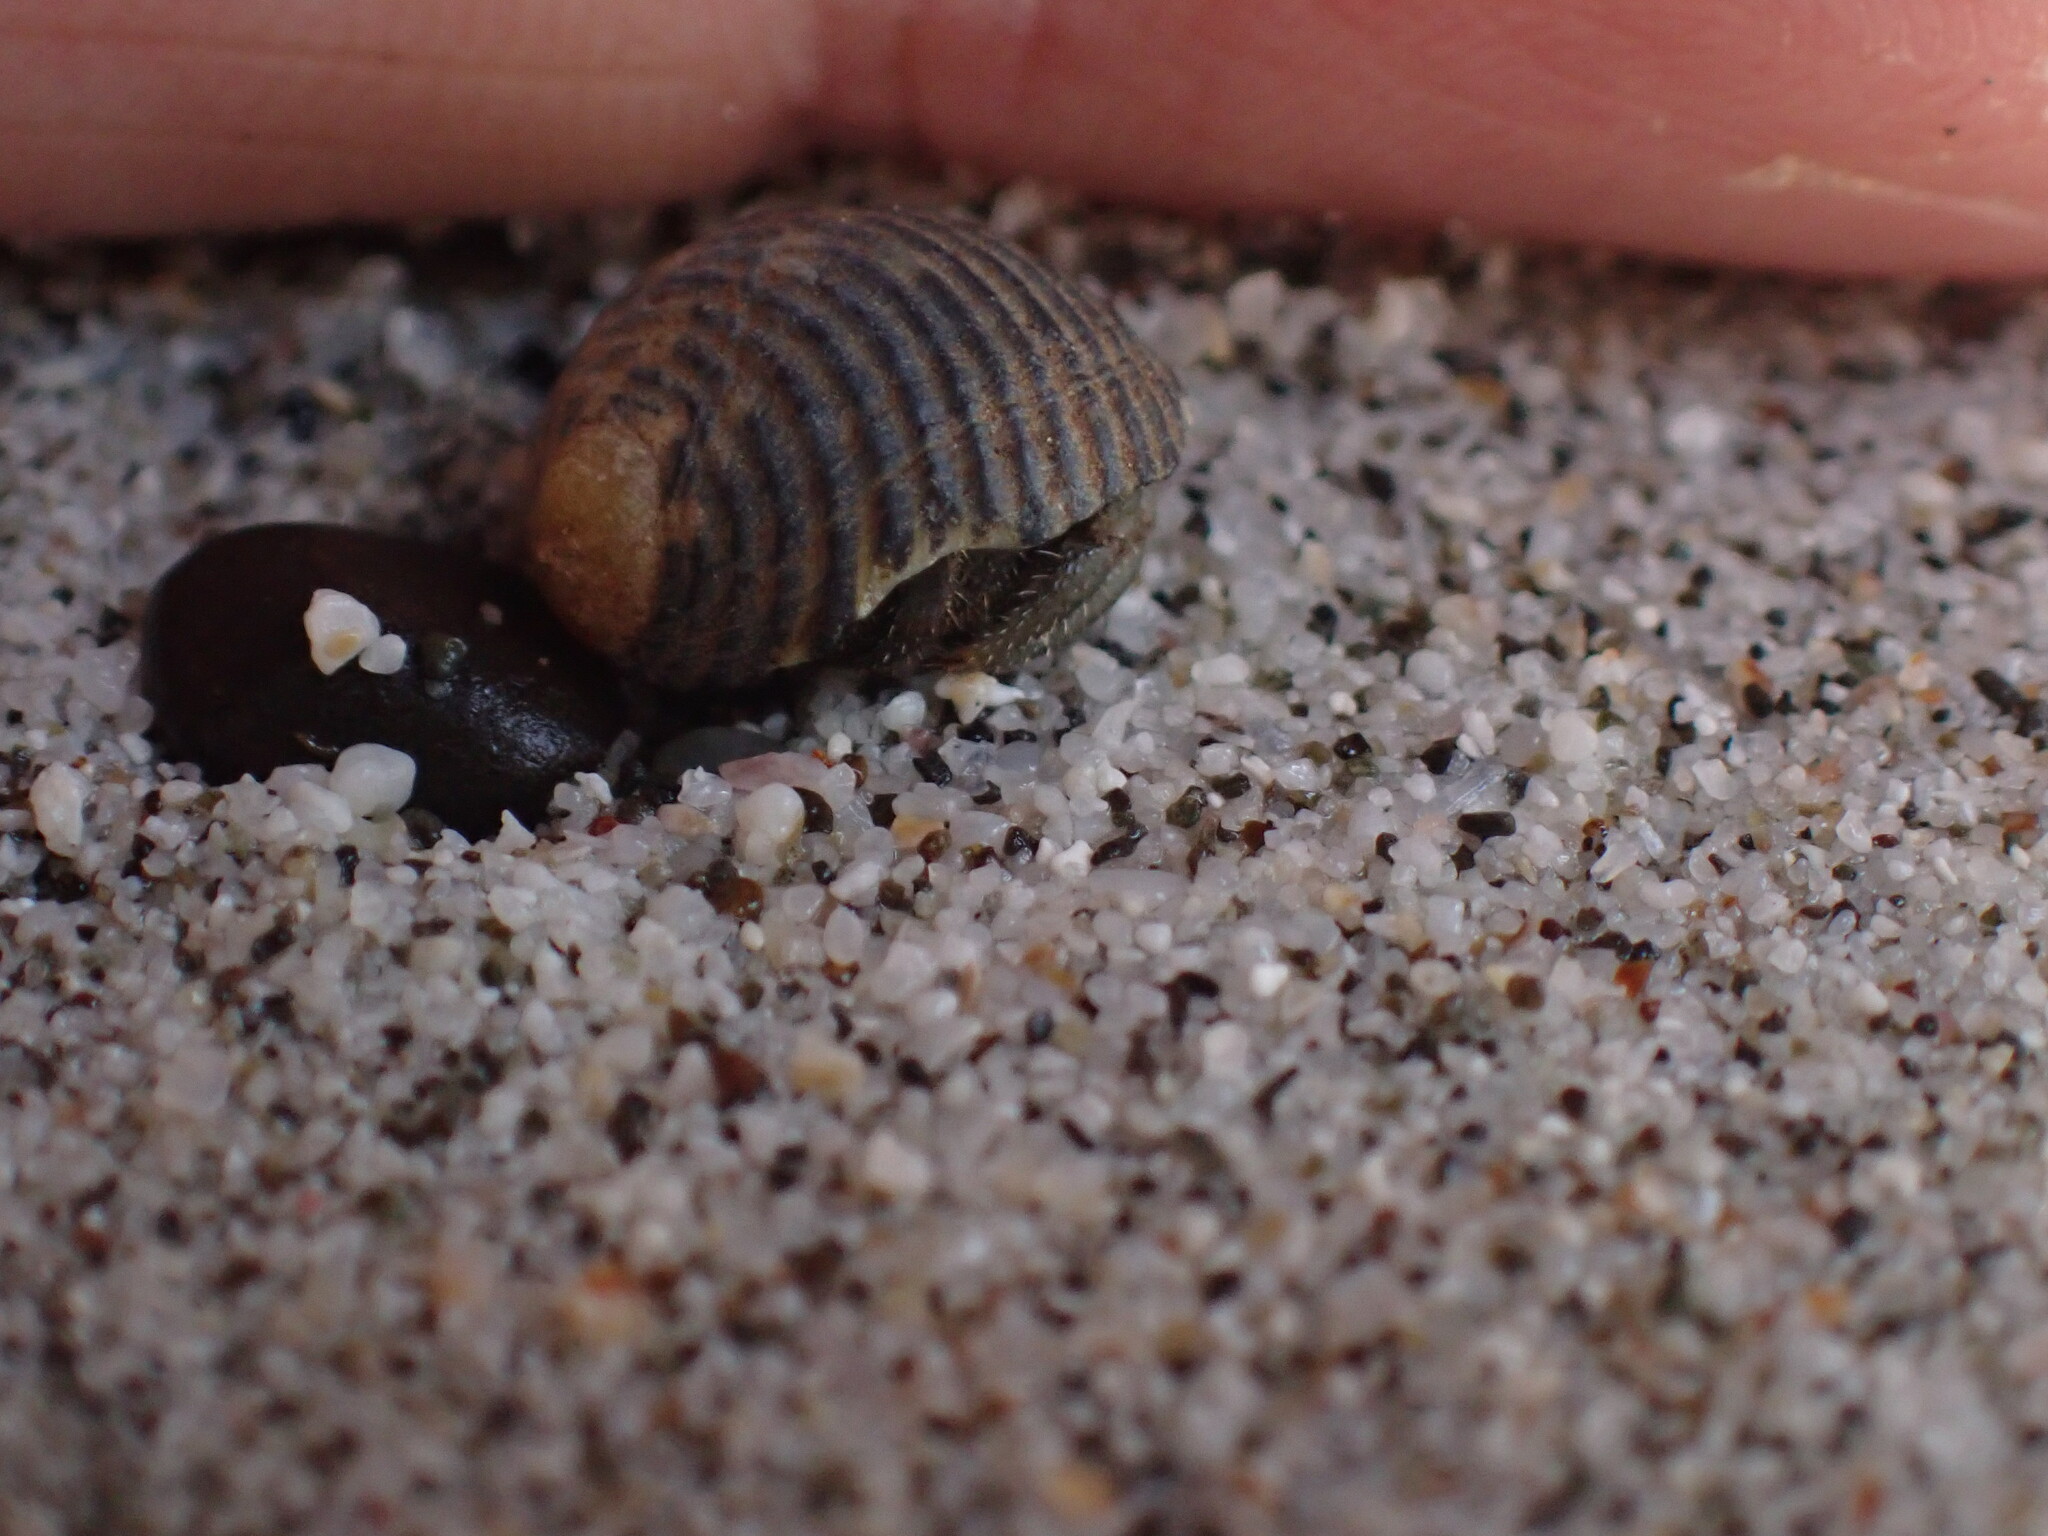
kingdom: Animalia
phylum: Arthropoda
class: Malacostraca
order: Decapoda
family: Coenobitidae
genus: Coenobita
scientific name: Coenobita compressus
